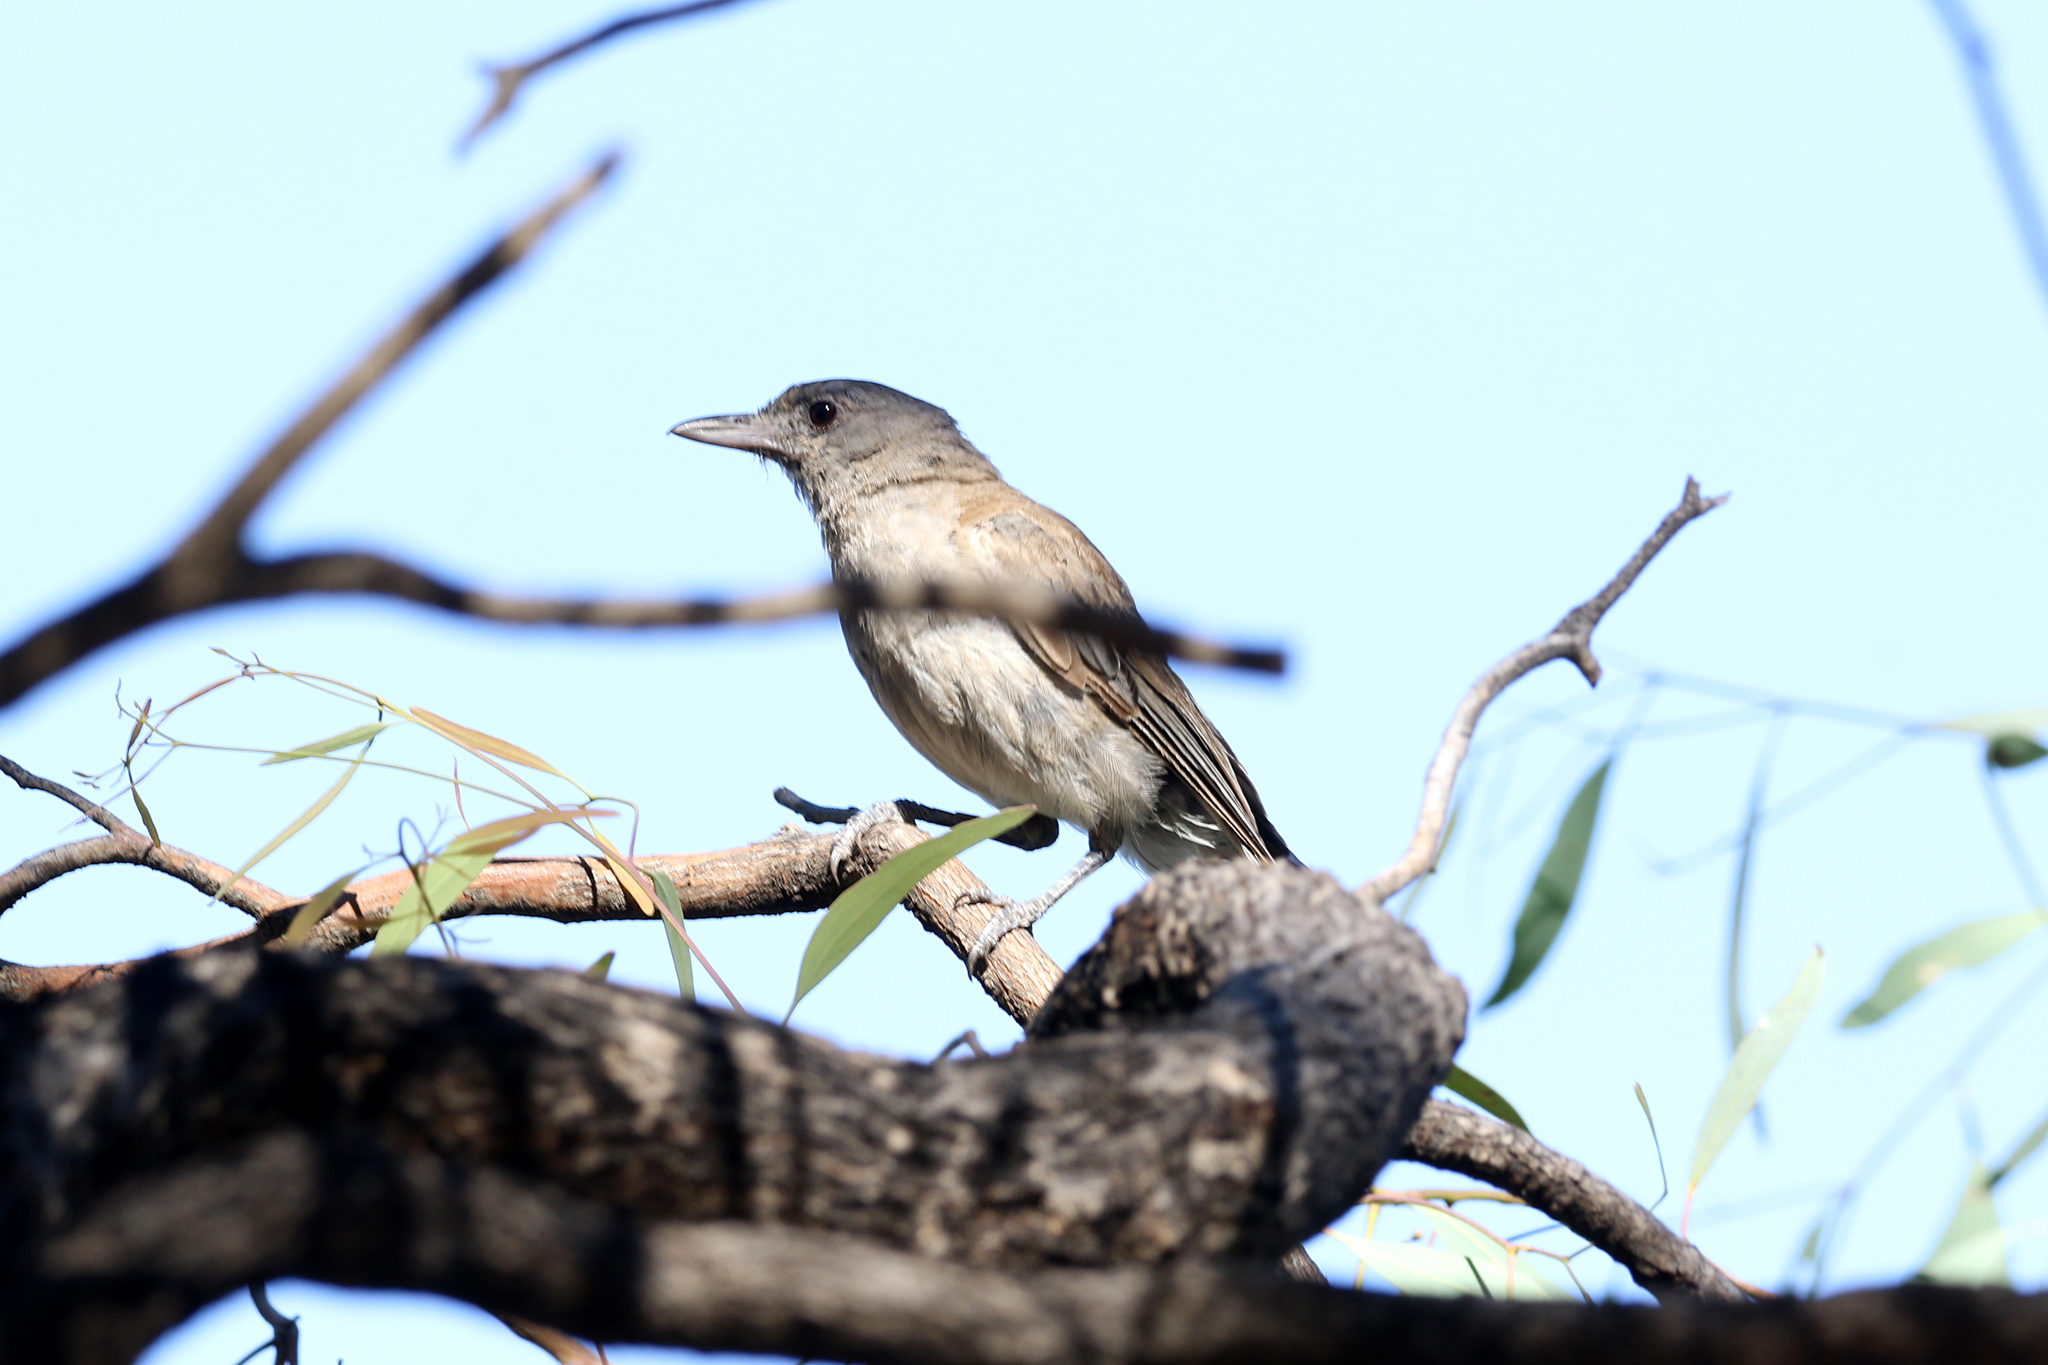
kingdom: Animalia
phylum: Chordata
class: Aves
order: Passeriformes
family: Pachycephalidae
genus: Colluricincla
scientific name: Colluricincla harmonica
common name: Grey shrikethrush
